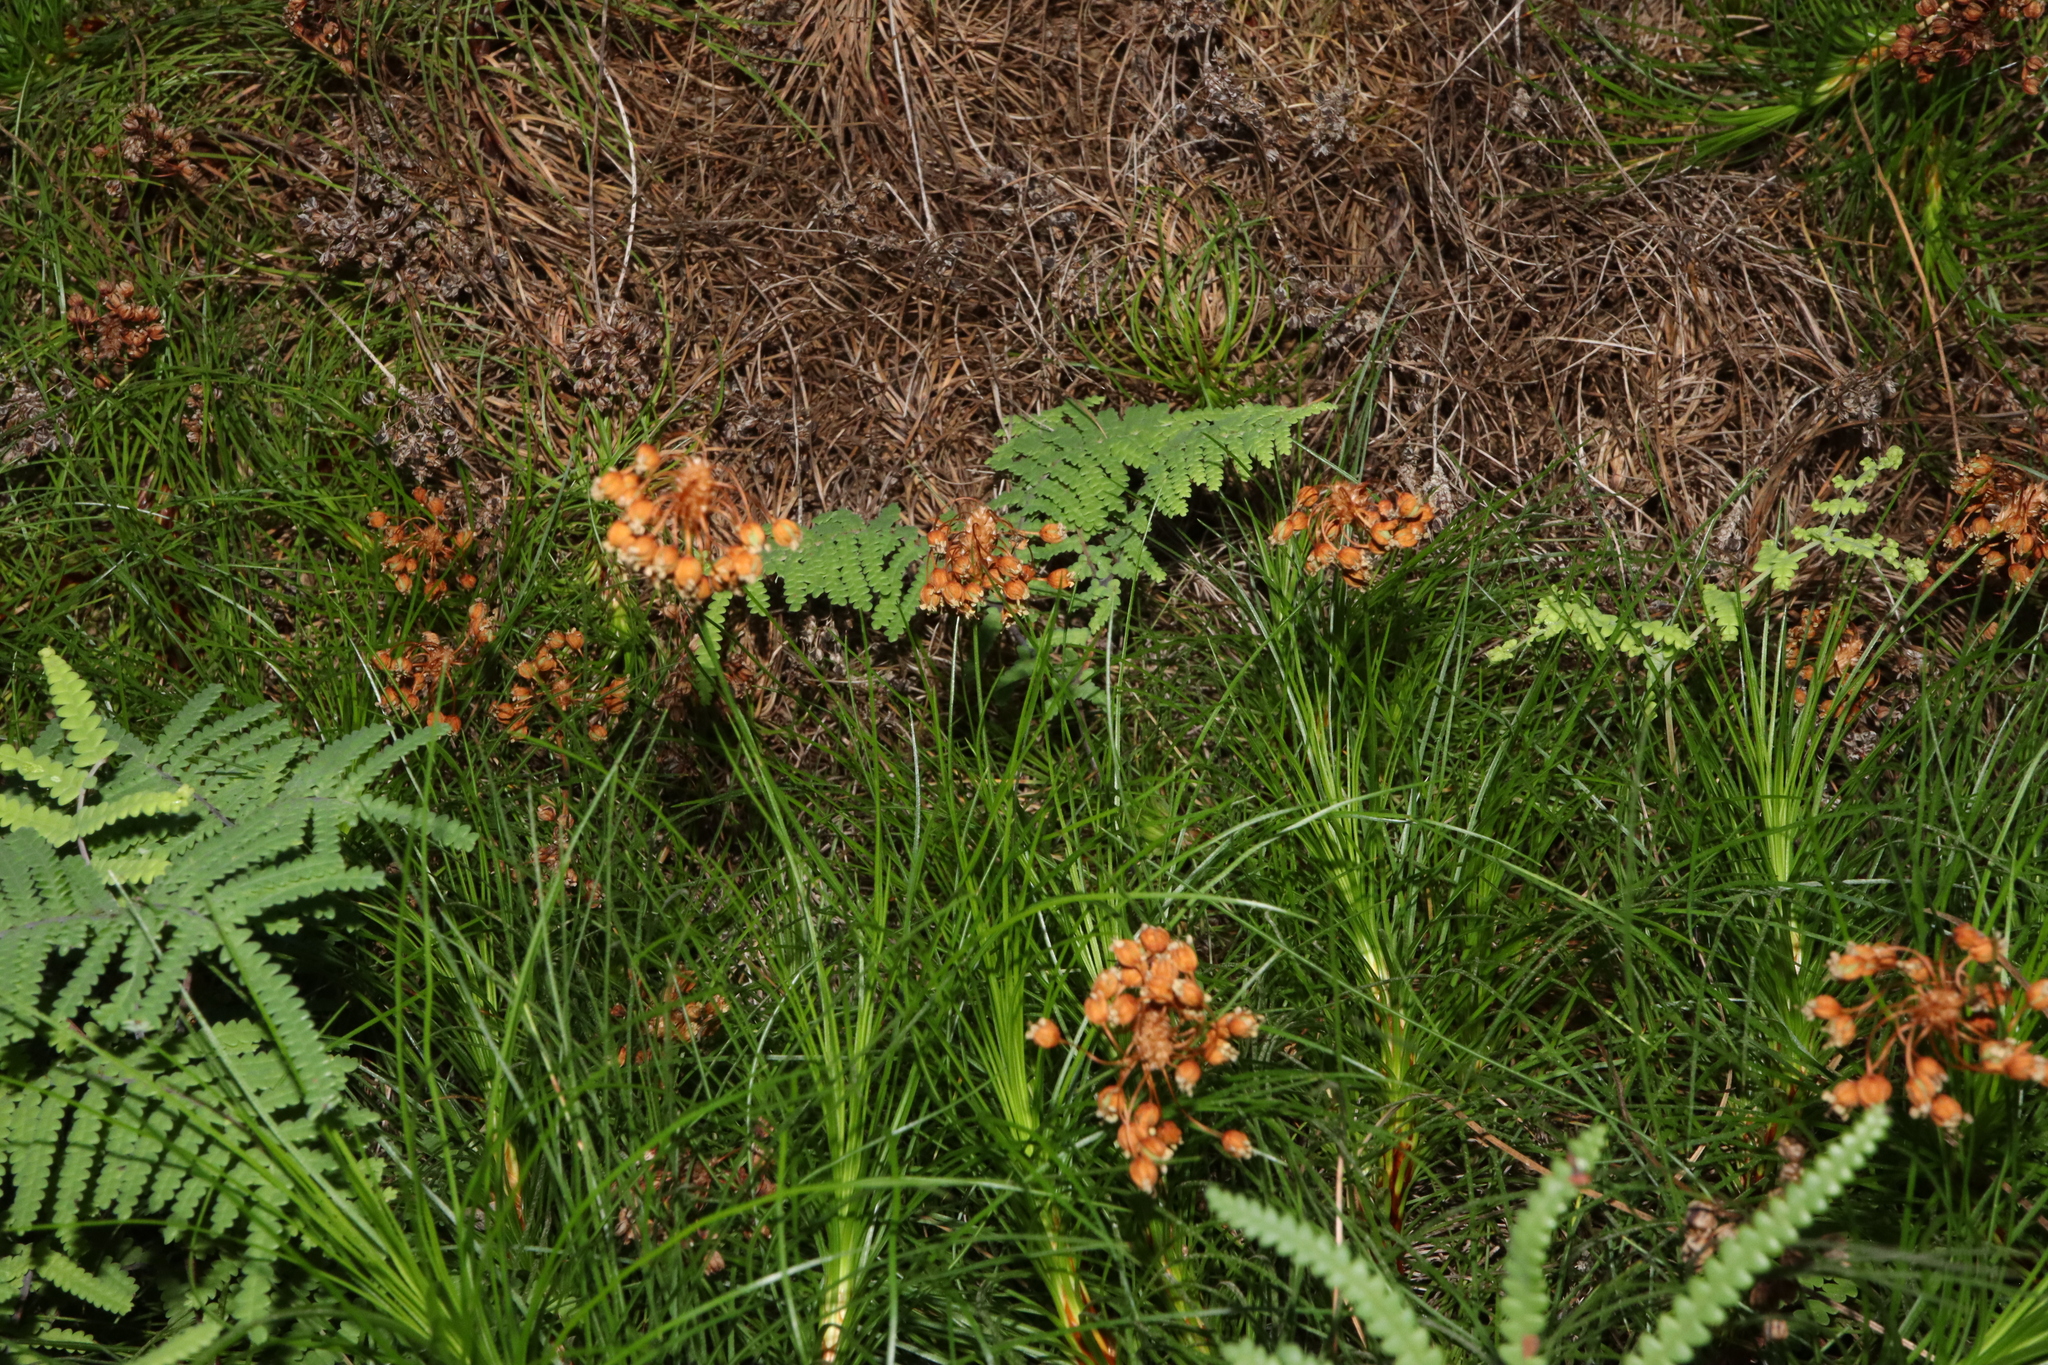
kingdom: Plantae
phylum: Tracheophyta
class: Liliopsida
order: Asparagales
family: Boryaceae
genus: Alania
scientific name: Alania cunninghamii
